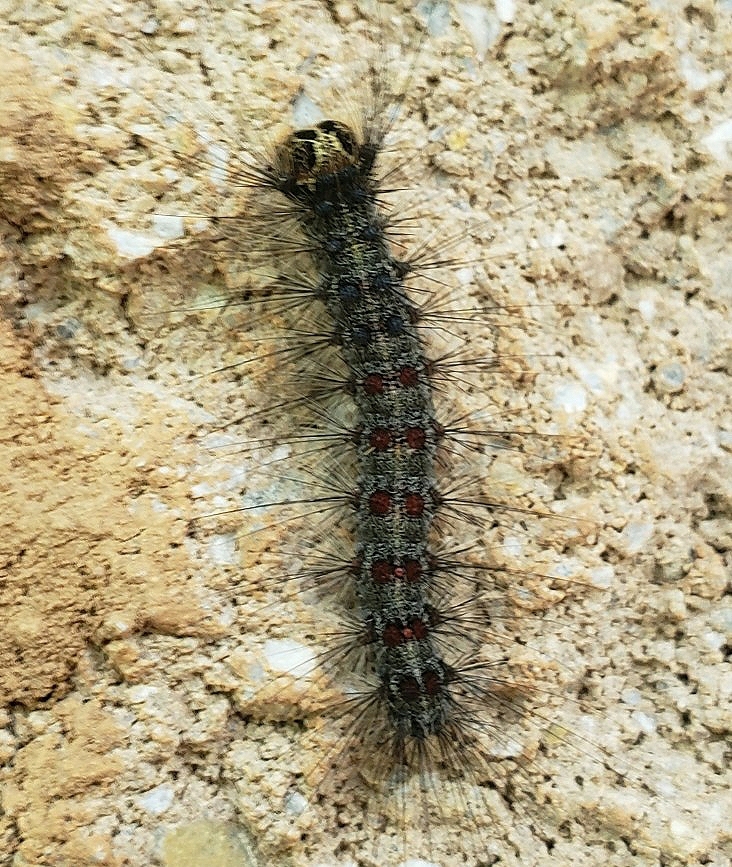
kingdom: Animalia
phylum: Arthropoda
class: Insecta
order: Lepidoptera
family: Erebidae
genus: Lymantria
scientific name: Lymantria dispar
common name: Gypsy moth
